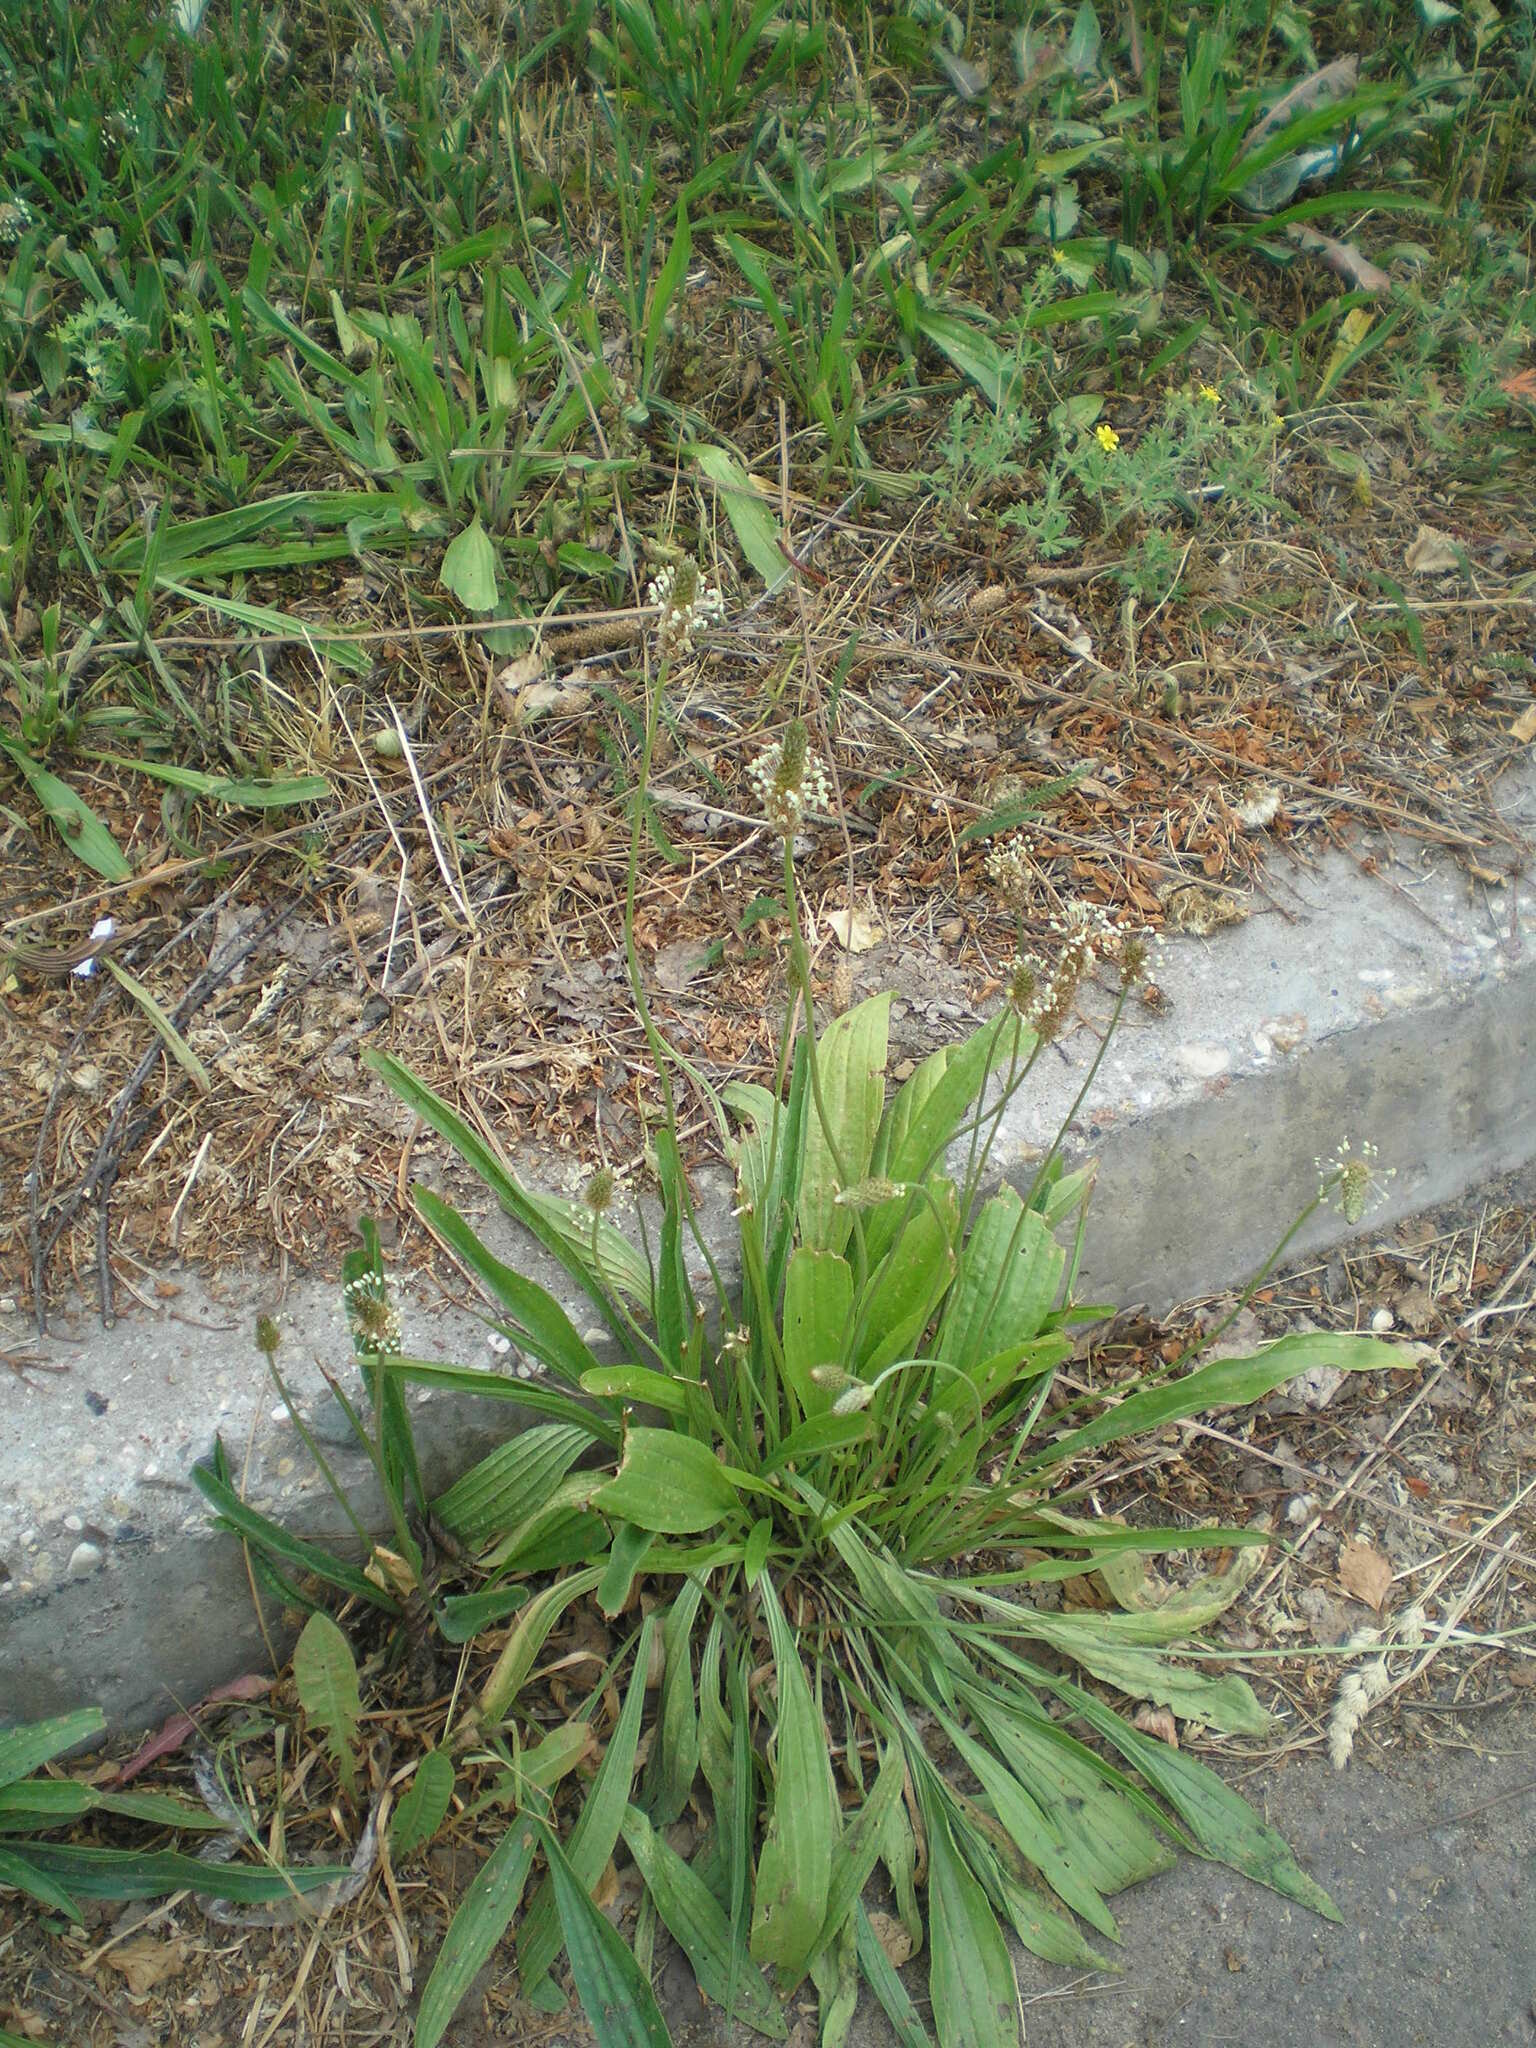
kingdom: Plantae
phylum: Tracheophyta
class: Magnoliopsida
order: Lamiales
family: Plantaginaceae
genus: Plantago
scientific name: Plantago lanceolata
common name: Ribwort plantain
